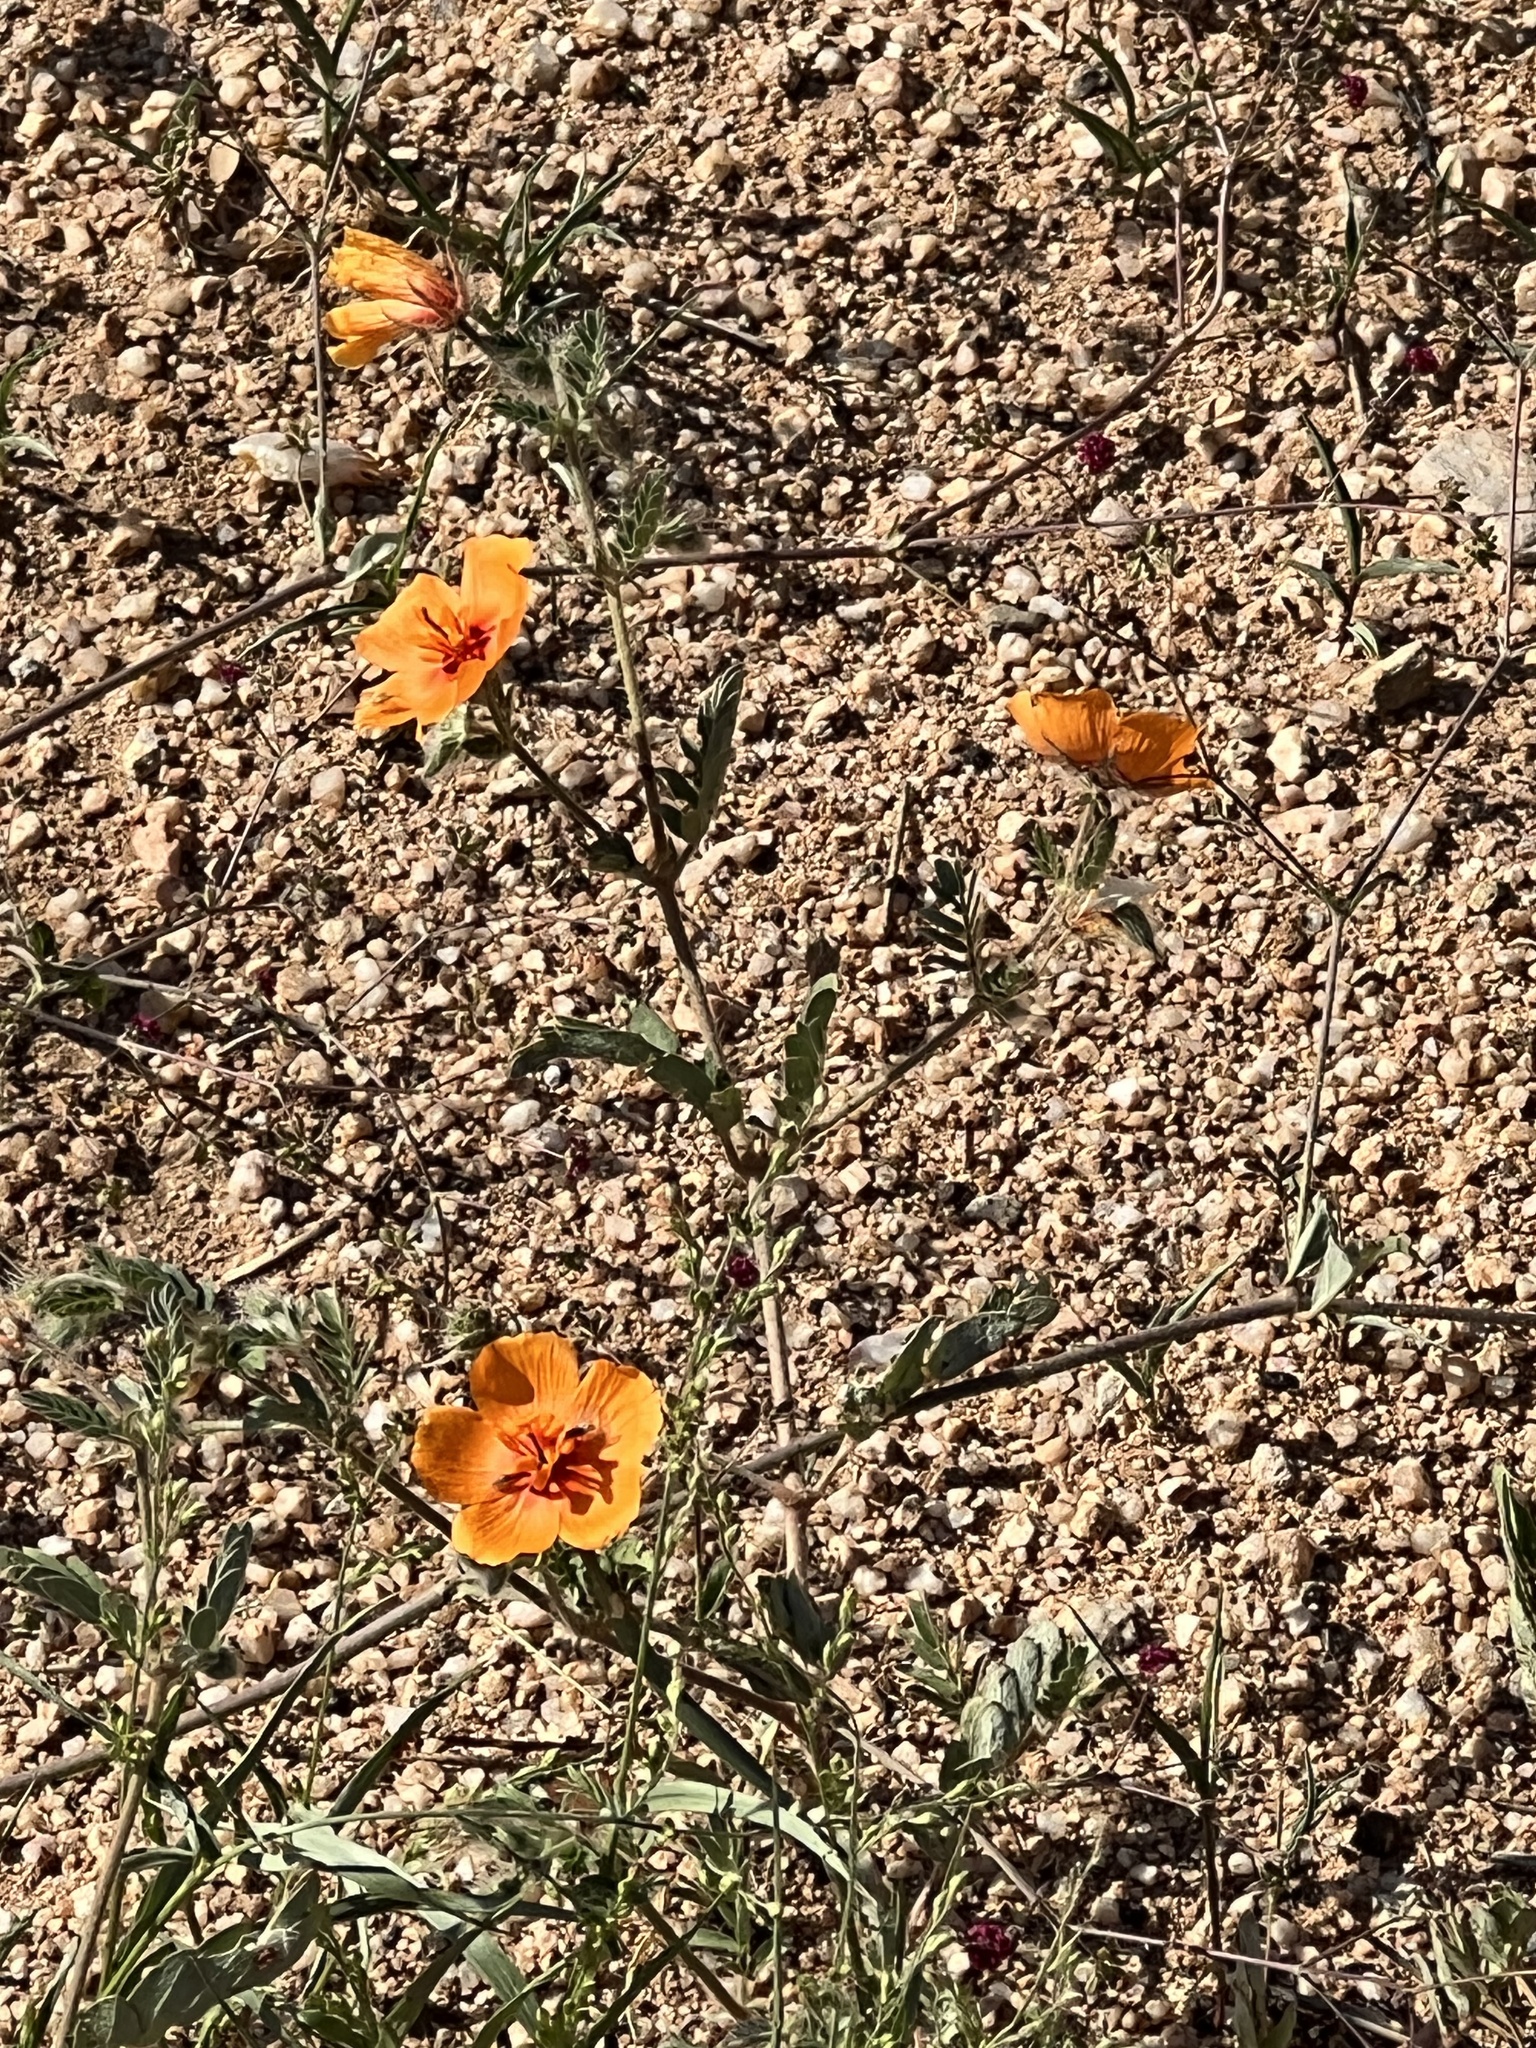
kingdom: Plantae
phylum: Tracheophyta
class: Magnoliopsida
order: Zygophyllales
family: Zygophyllaceae
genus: Kallstroemia
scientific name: Kallstroemia grandiflora
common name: Arizona-poppy
